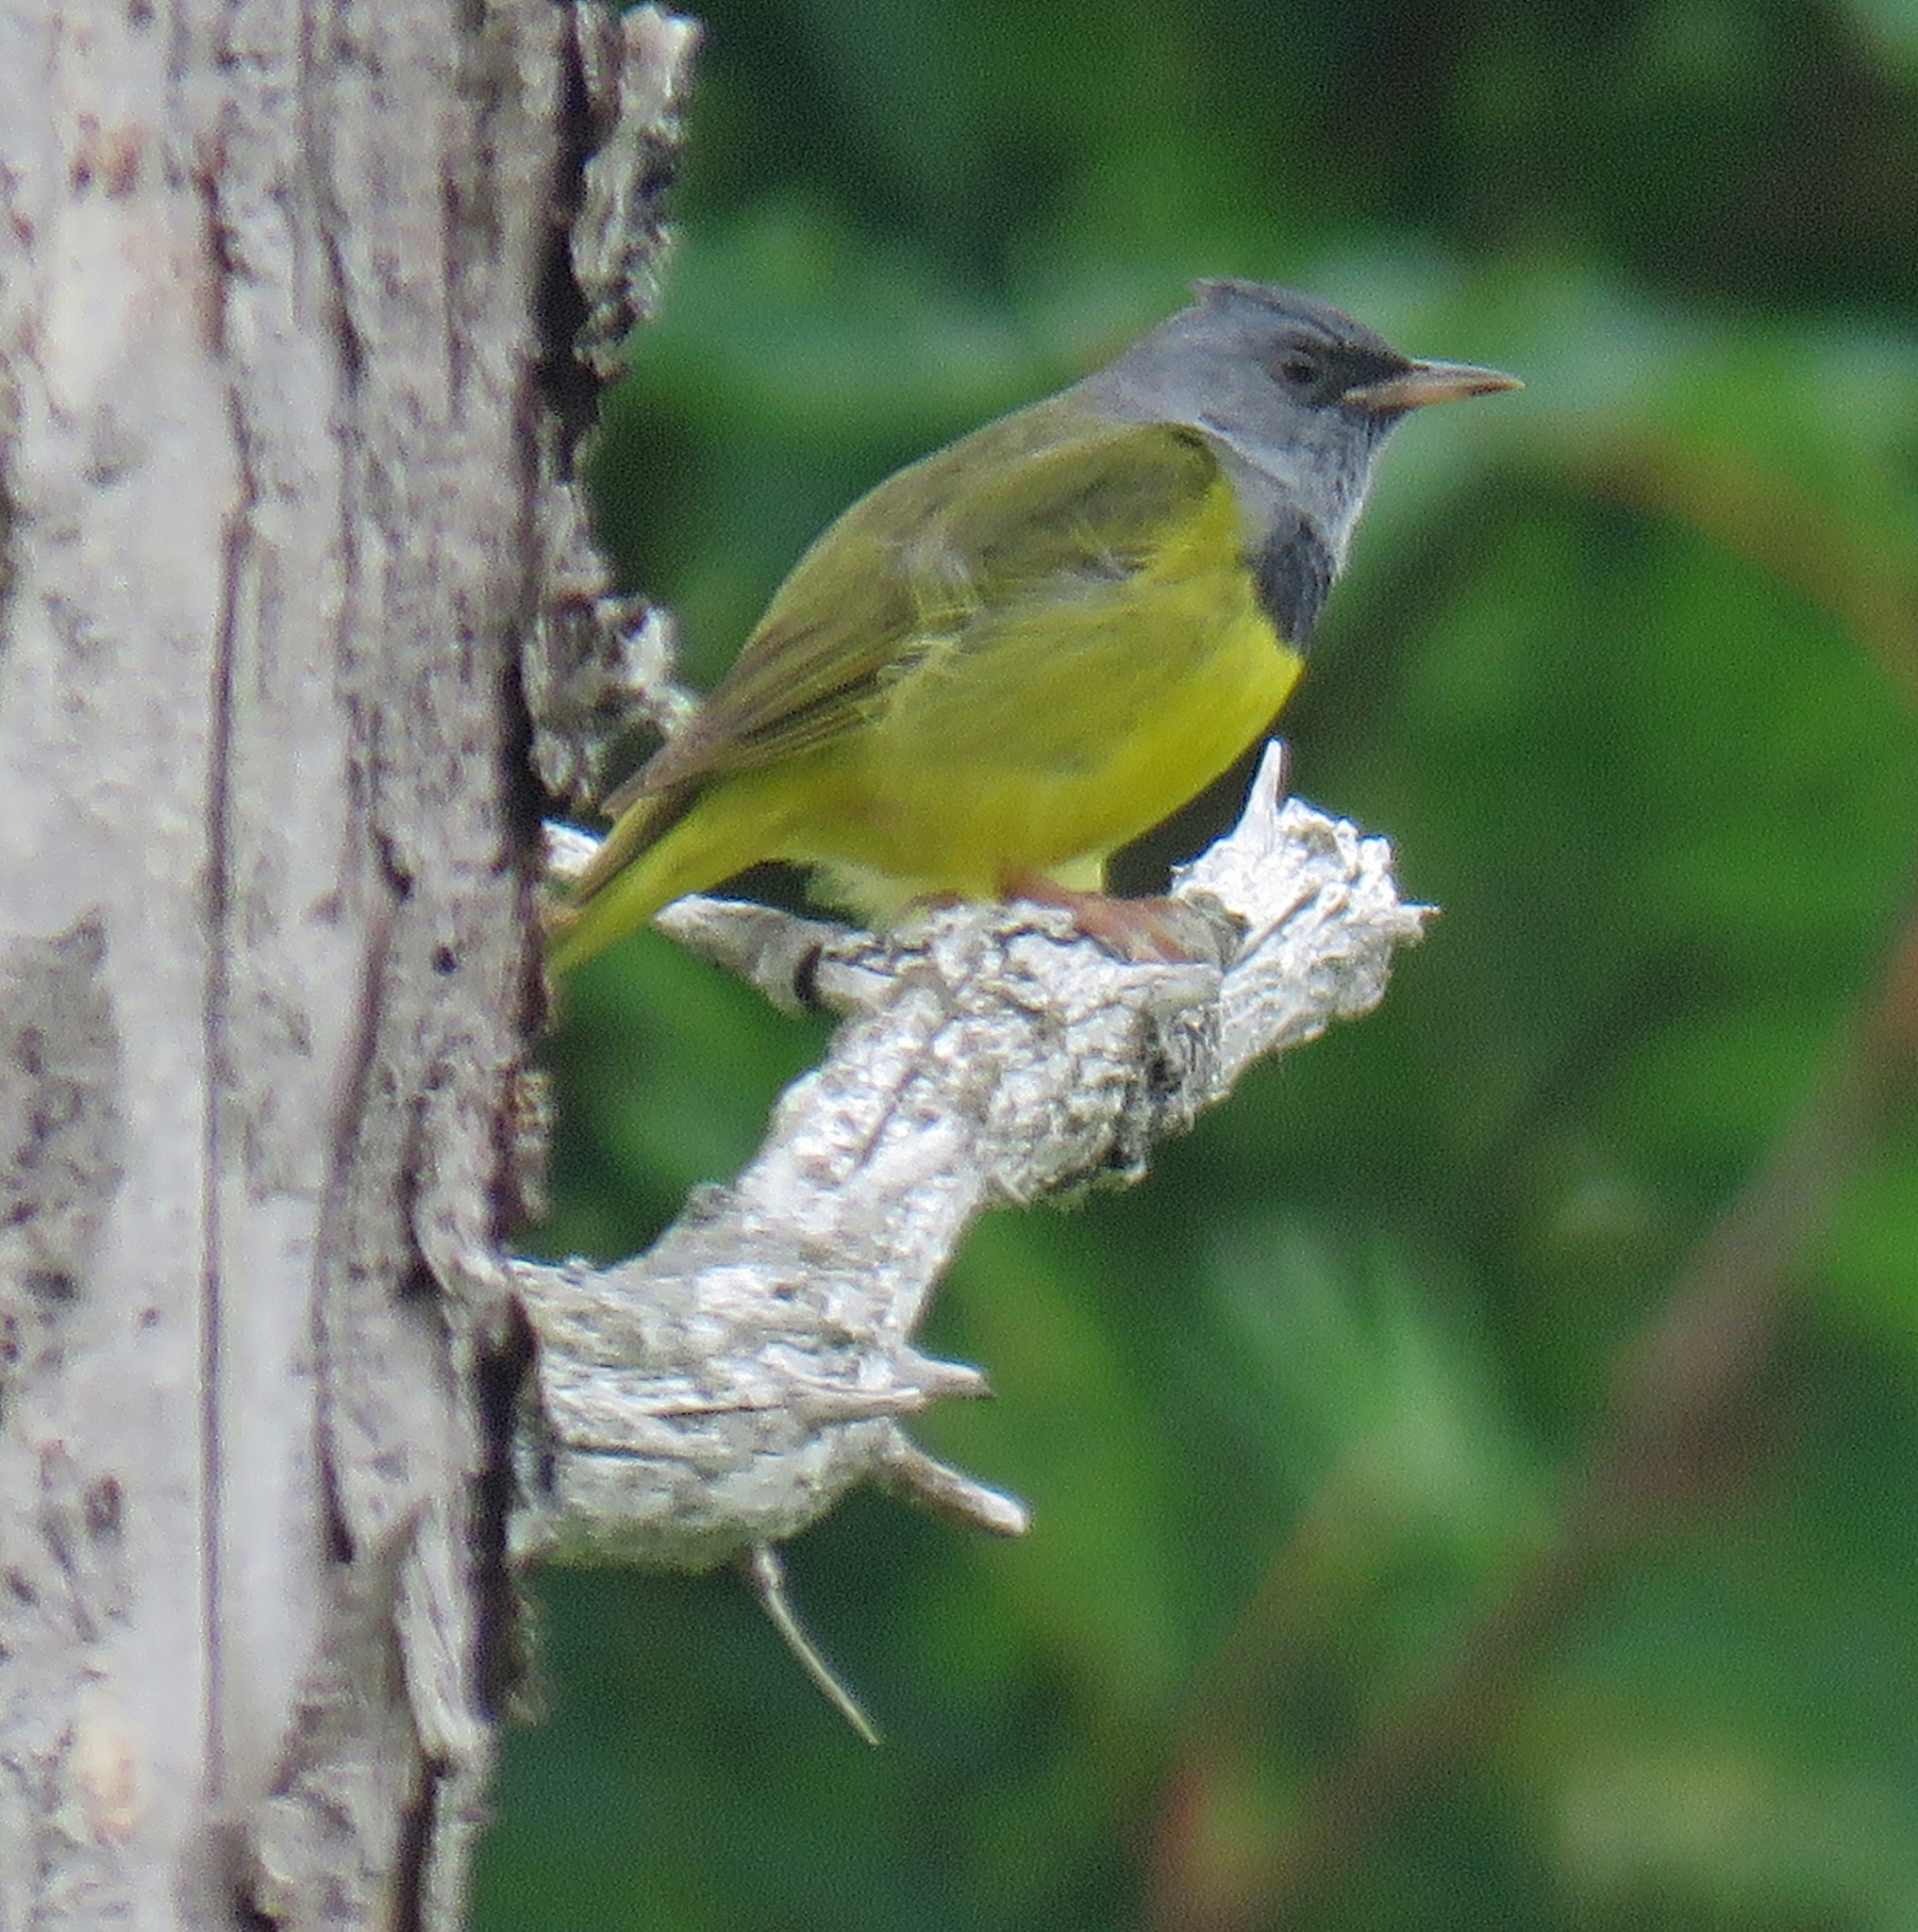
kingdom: Animalia
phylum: Chordata
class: Aves
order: Passeriformes
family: Parulidae
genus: Geothlypis
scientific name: Geothlypis philadelphia
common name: Mourning warbler
